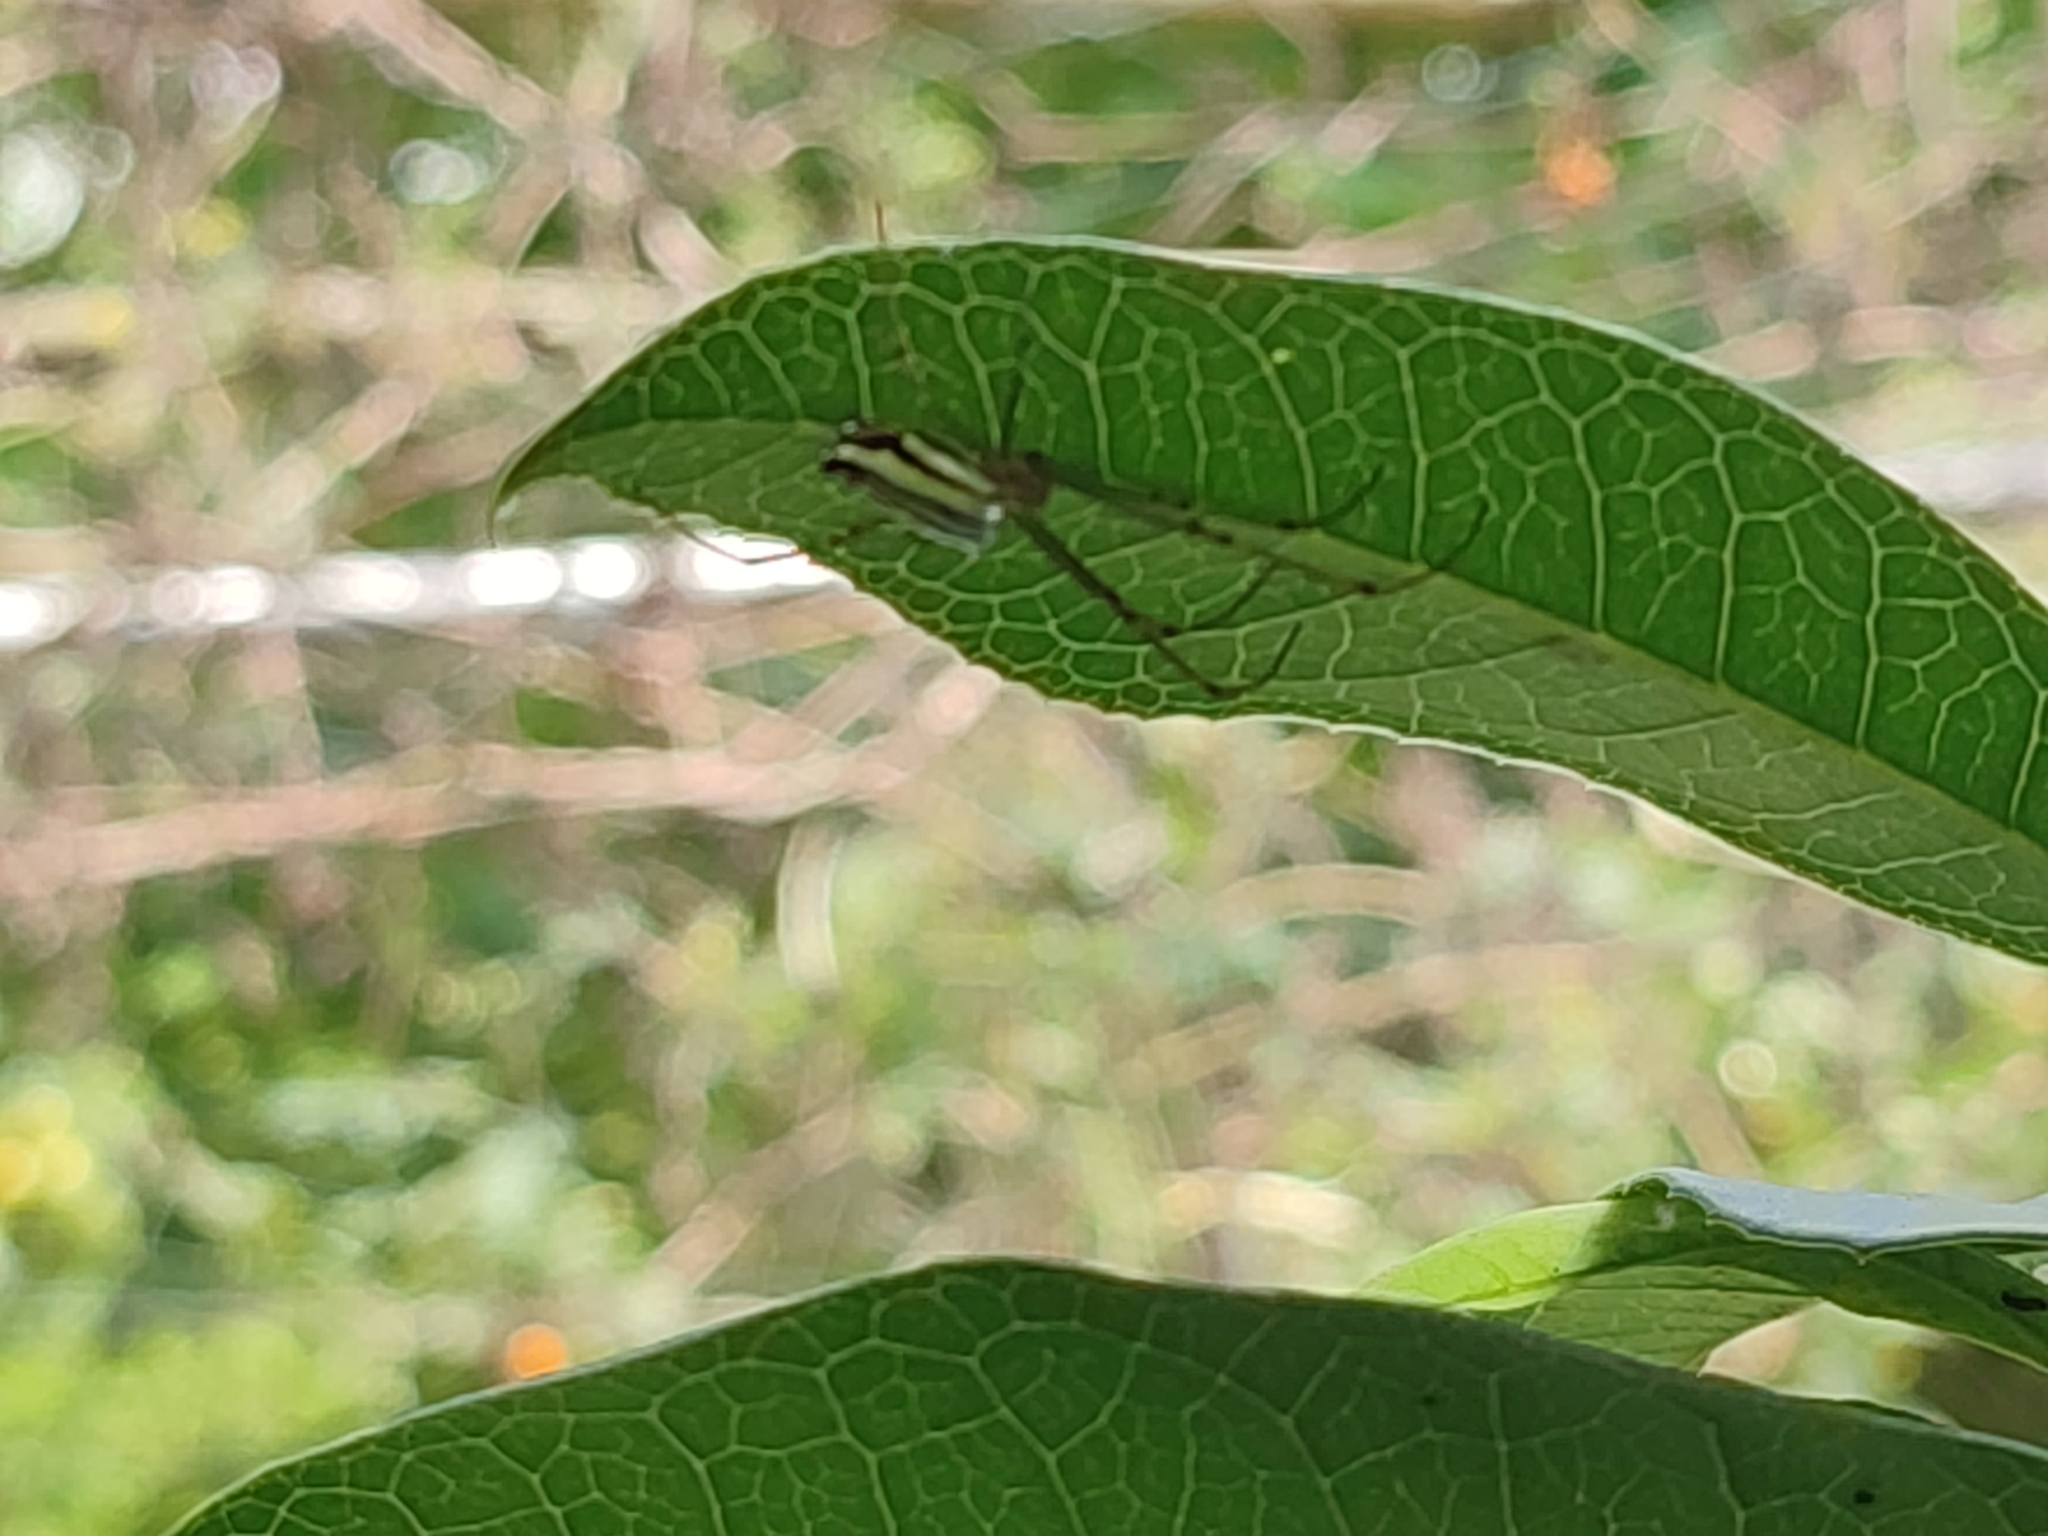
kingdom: Animalia
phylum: Arthropoda
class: Arachnida
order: Araneae
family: Tetragnathidae
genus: Leucauge
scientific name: Leucauge blanda
